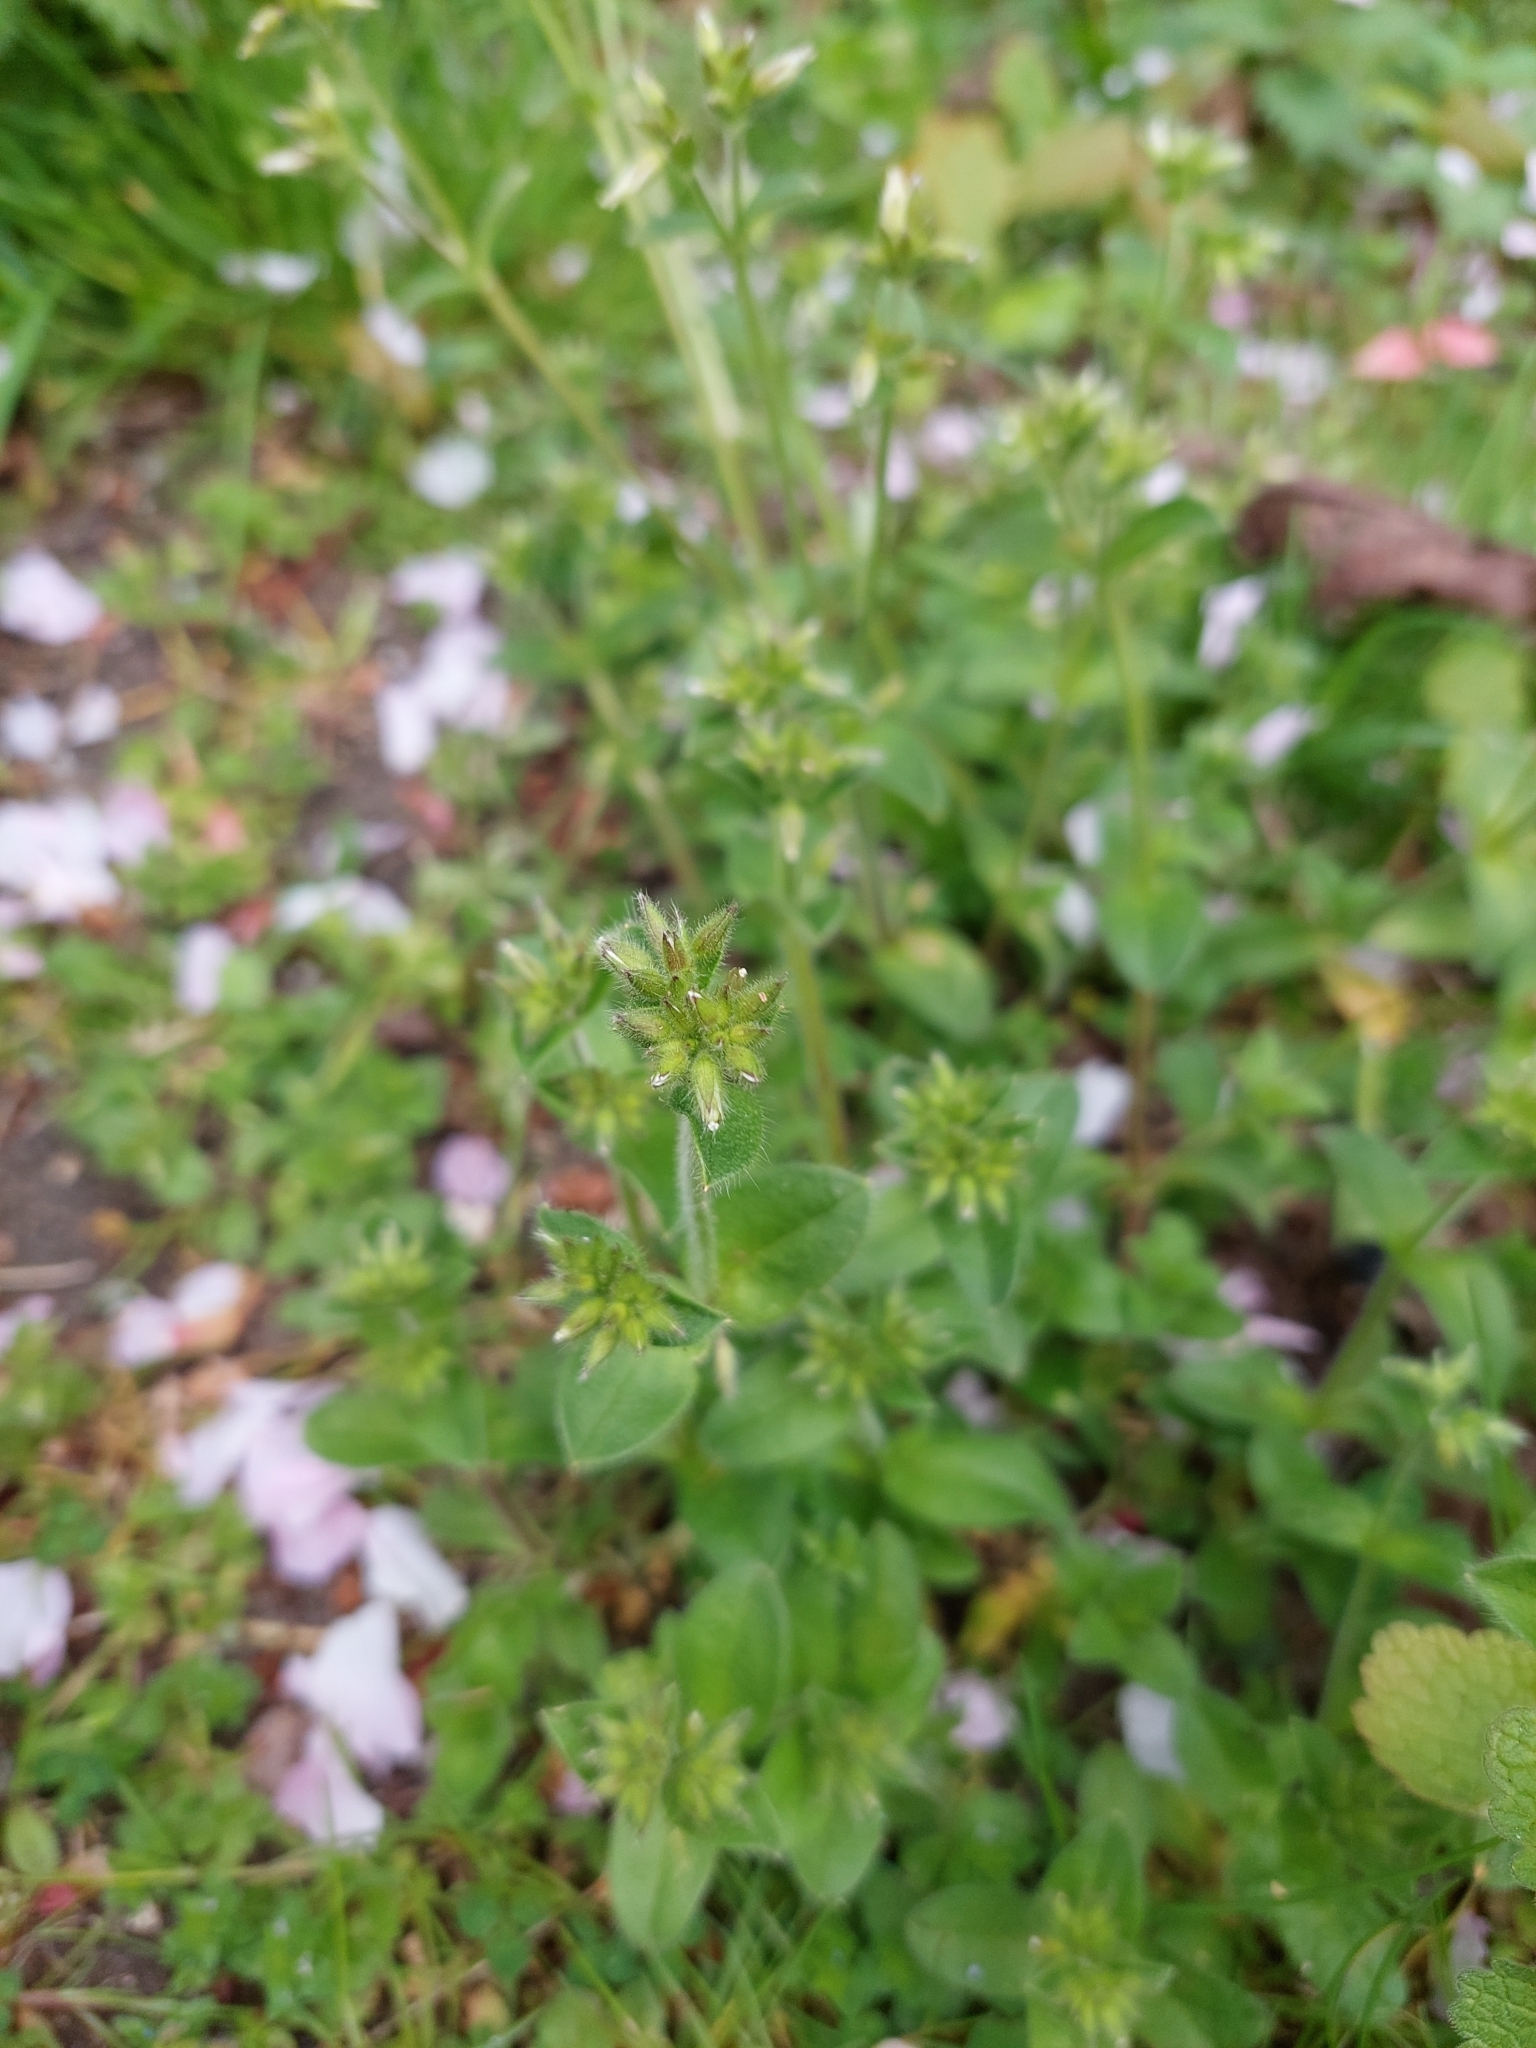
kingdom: Plantae
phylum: Tracheophyta
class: Magnoliopsida
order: Caryophyllales
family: Caryophyllaceae
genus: Cerastium
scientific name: Cerastium glomeratum
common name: Sticky chickweed
